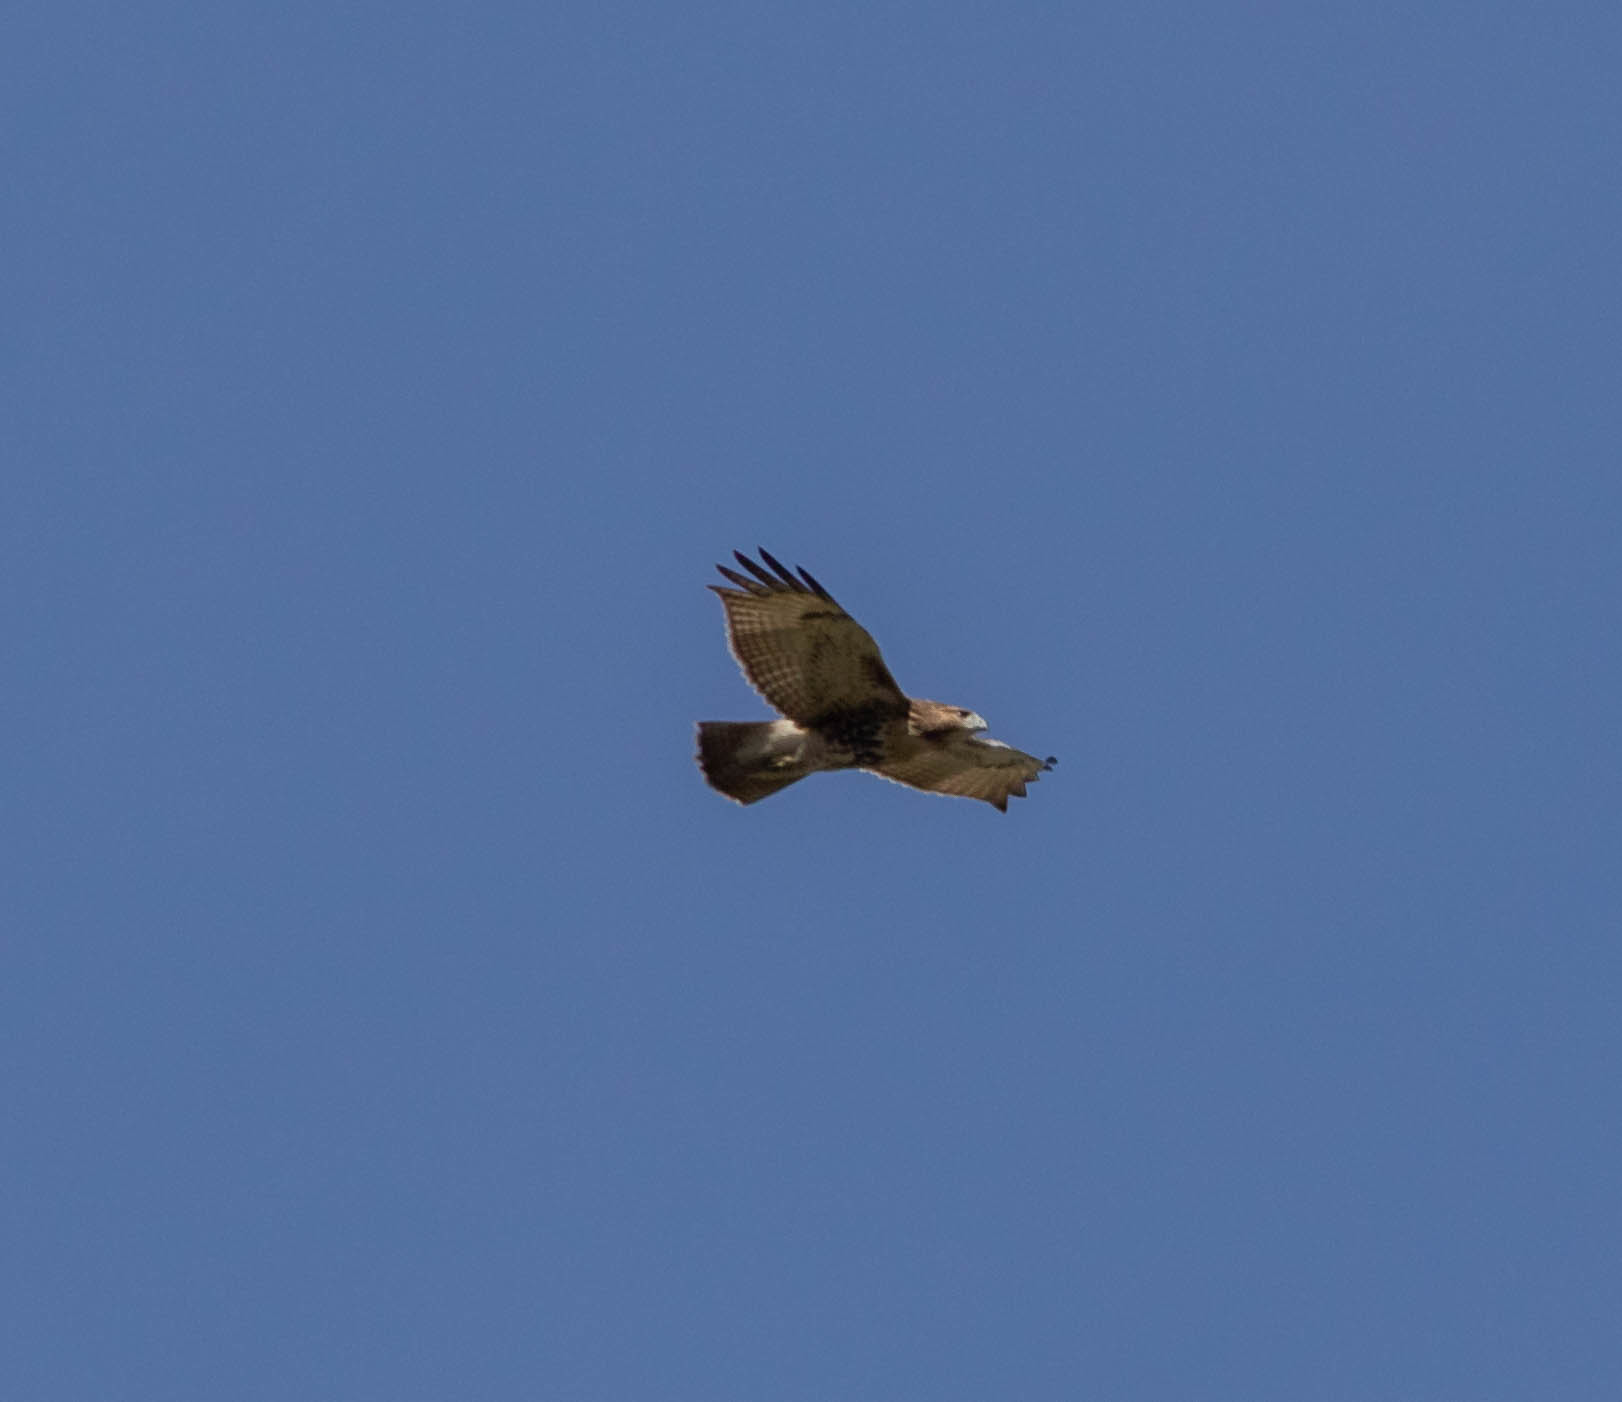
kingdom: Animalia
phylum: Chordata
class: Aves
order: Accipitriformes
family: Accipitridae
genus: Buteo
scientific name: Buteo jamaicensis
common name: Red-tailed hawk
